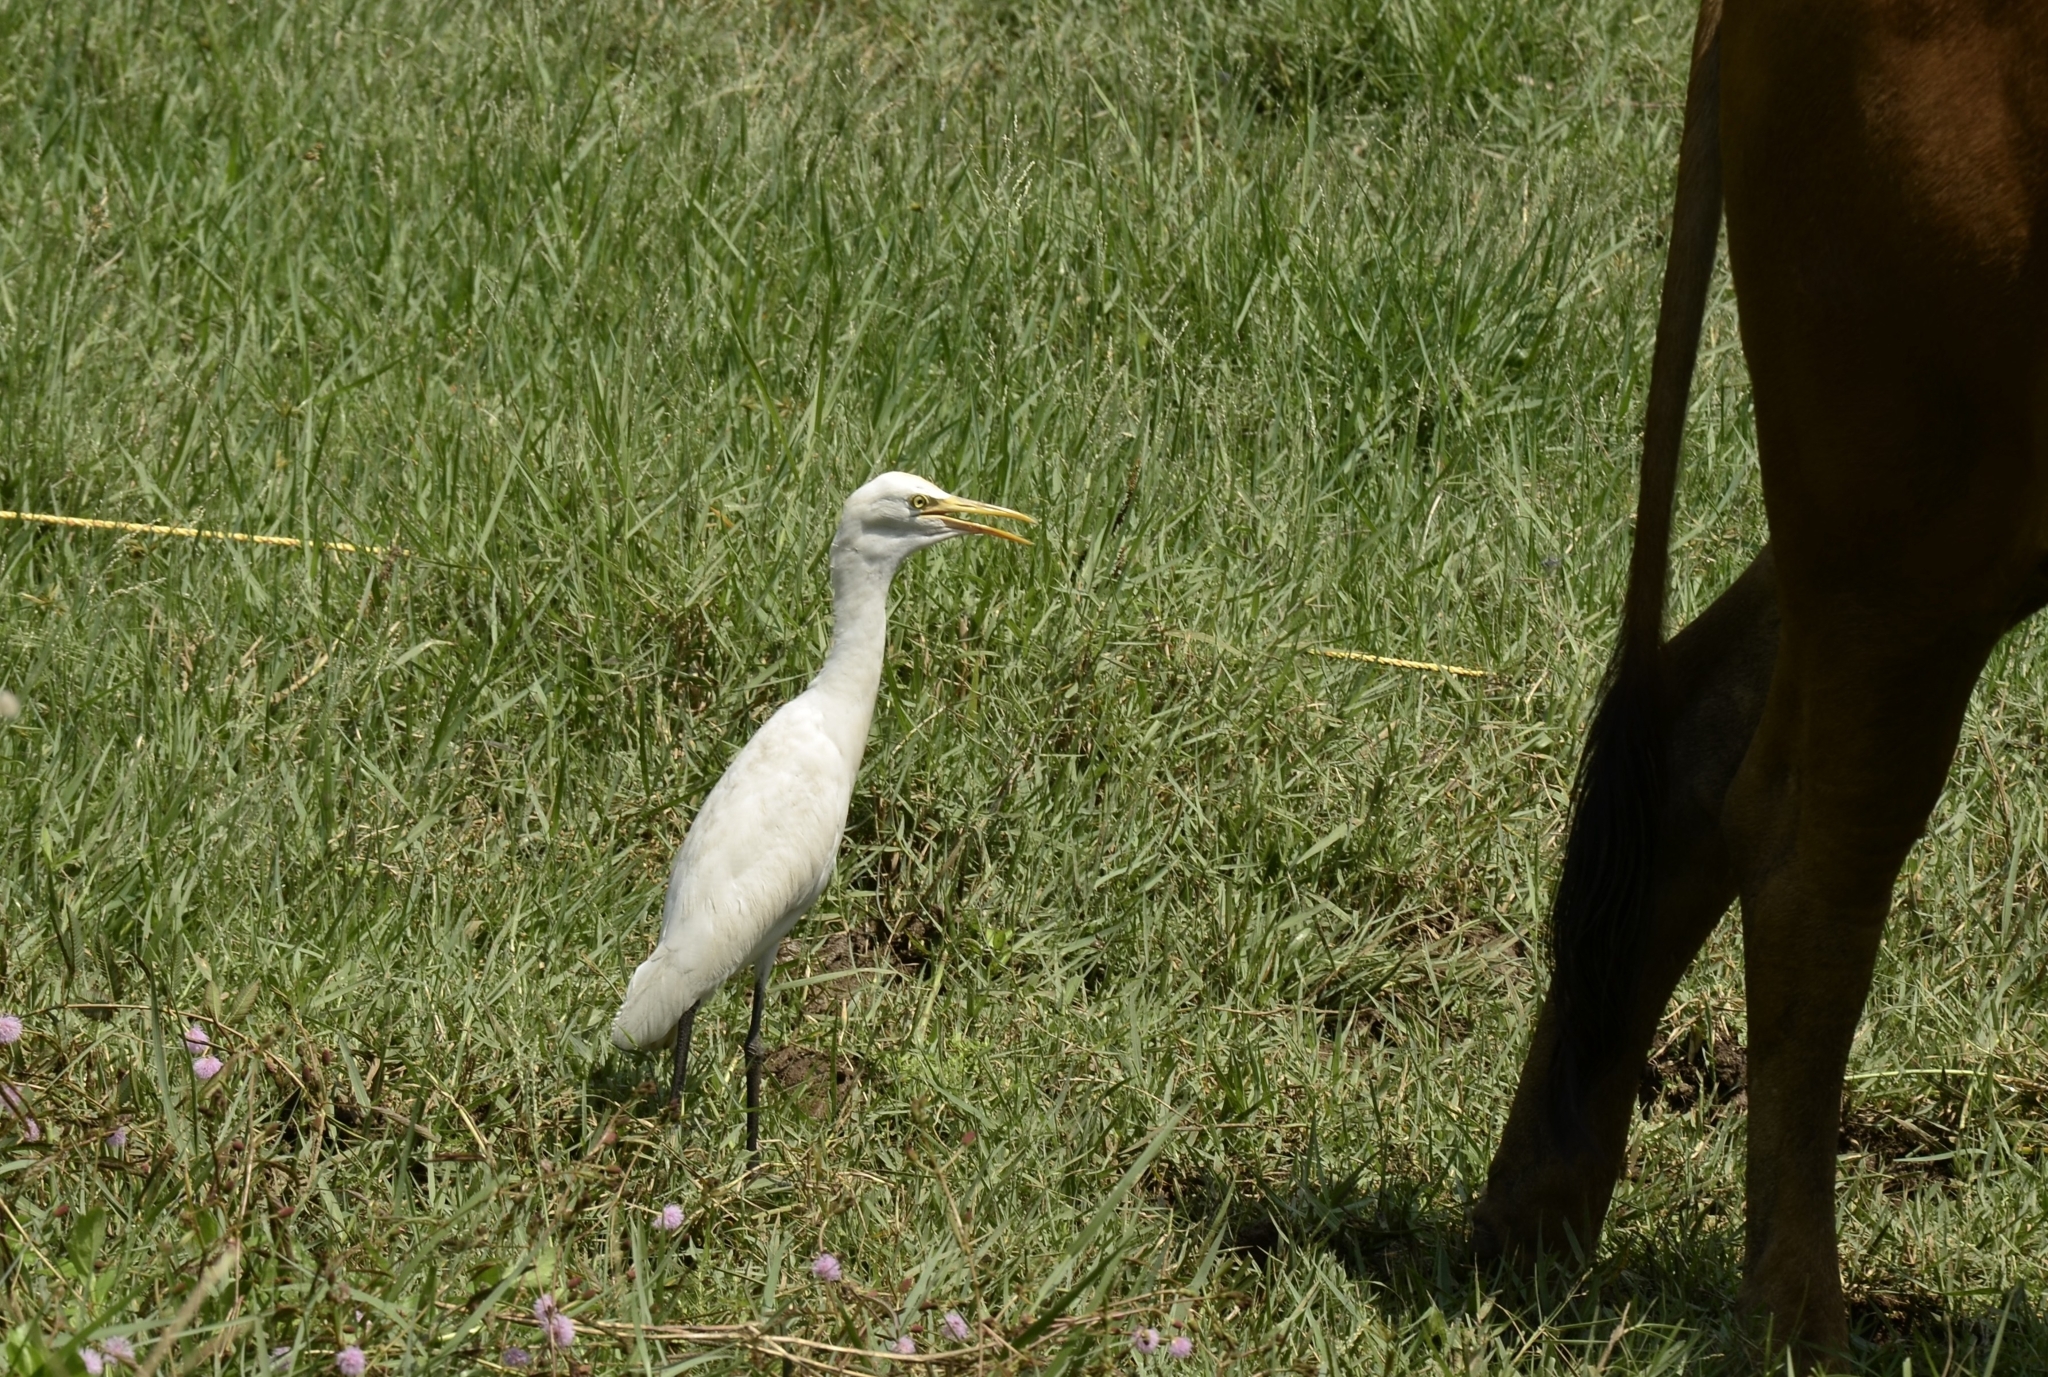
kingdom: Animalia
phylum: Chordata
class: Aves
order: Pelecaniformes
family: Ardeidae
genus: Bubulcus
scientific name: Bubulcus coromandus
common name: Eastern cattle egret
